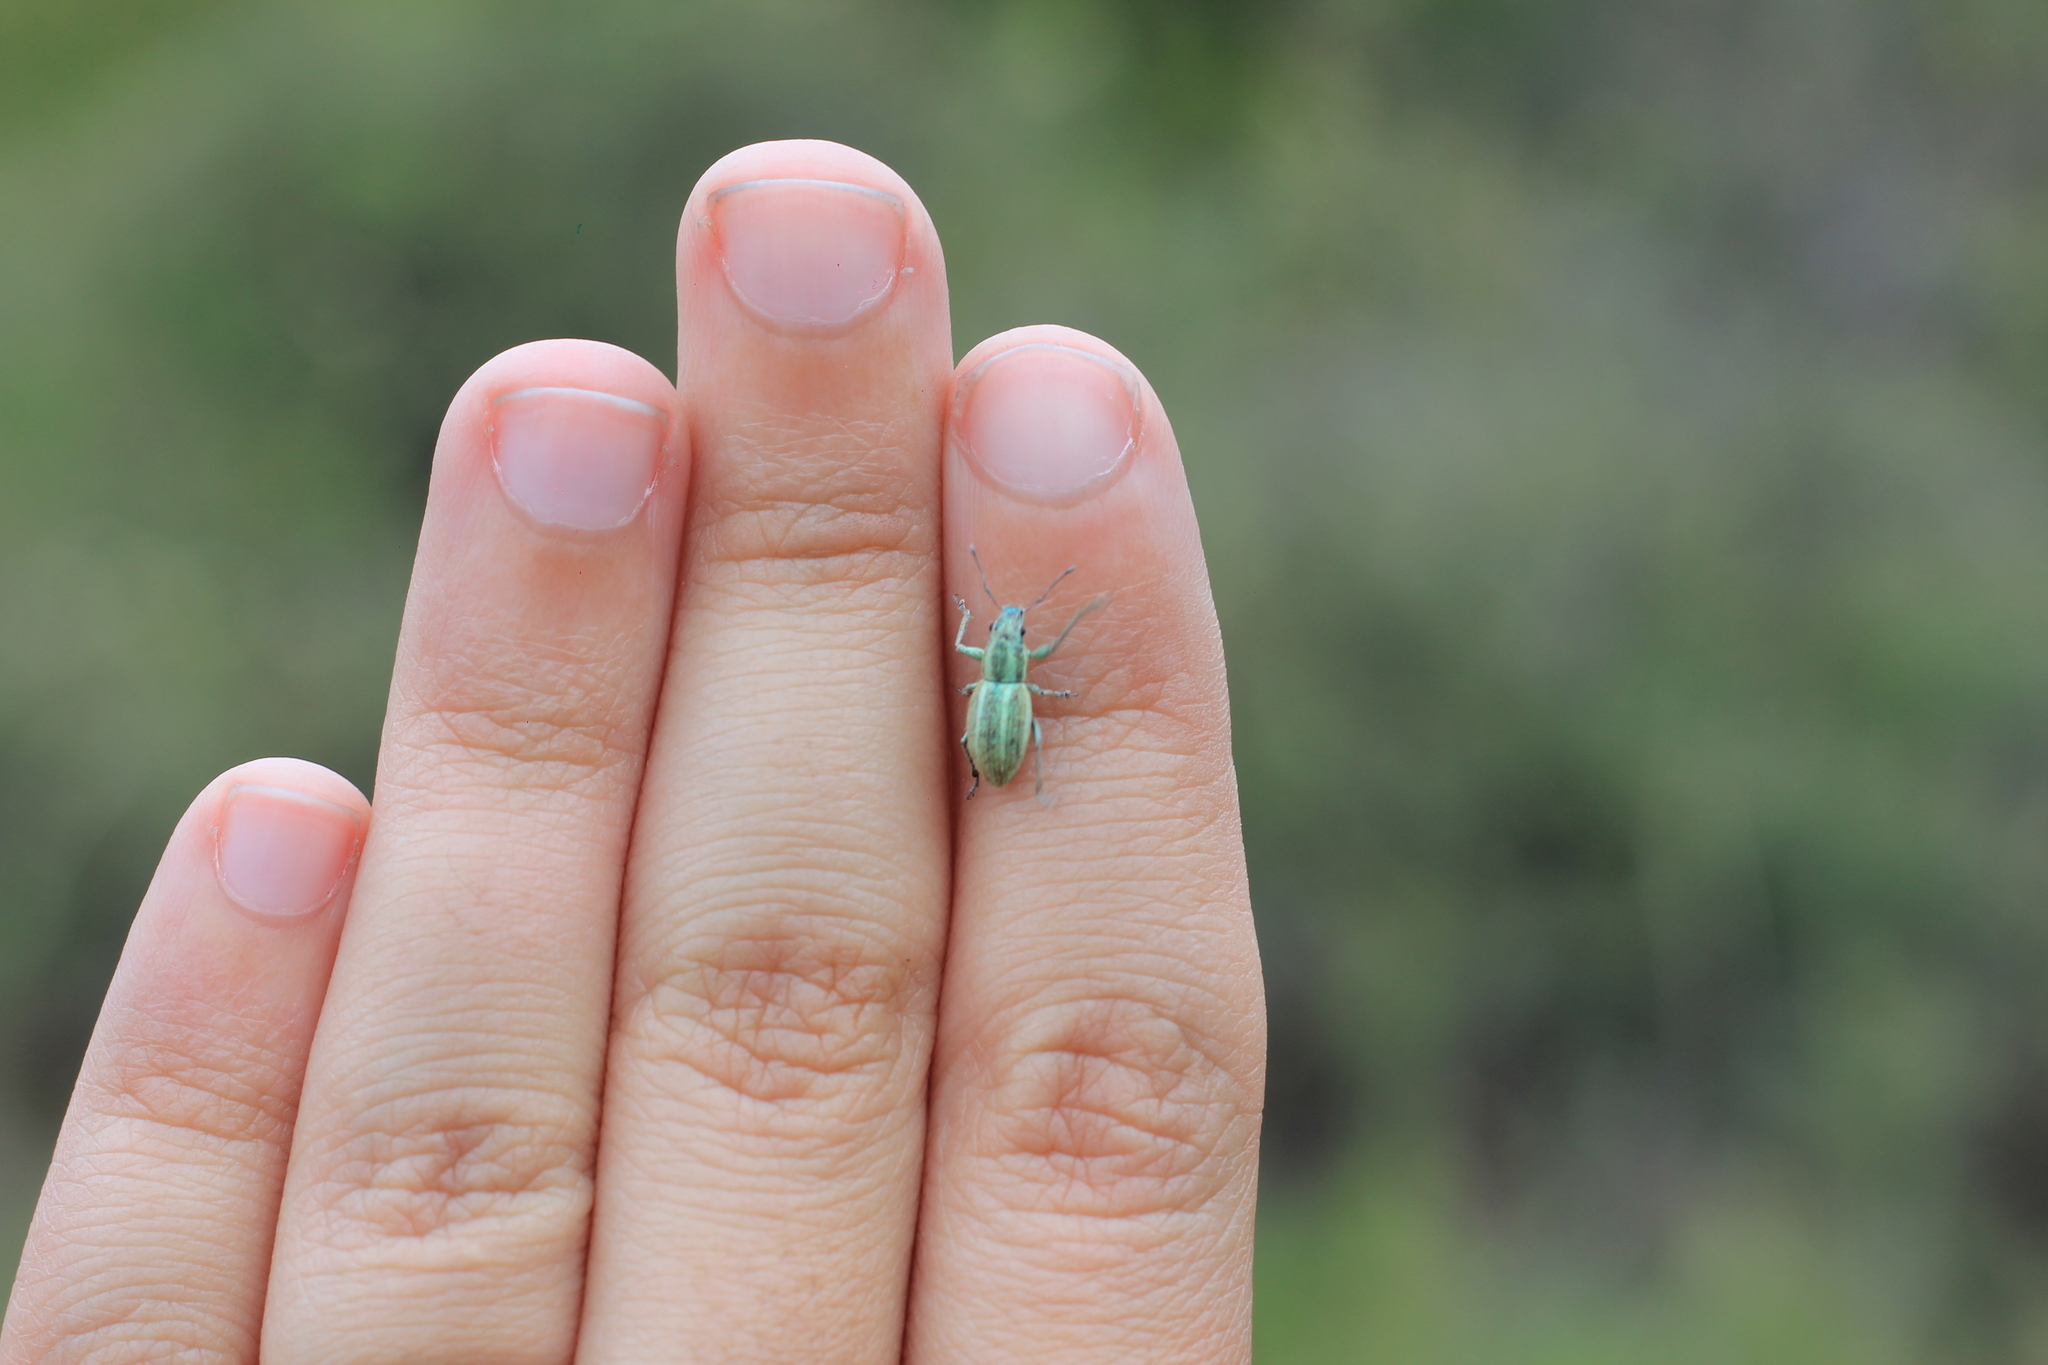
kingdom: Animalia
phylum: Arthropoda
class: Insecta
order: Coleoptera
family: Curculionidae
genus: Naupactus
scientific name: Naupactus auripes
